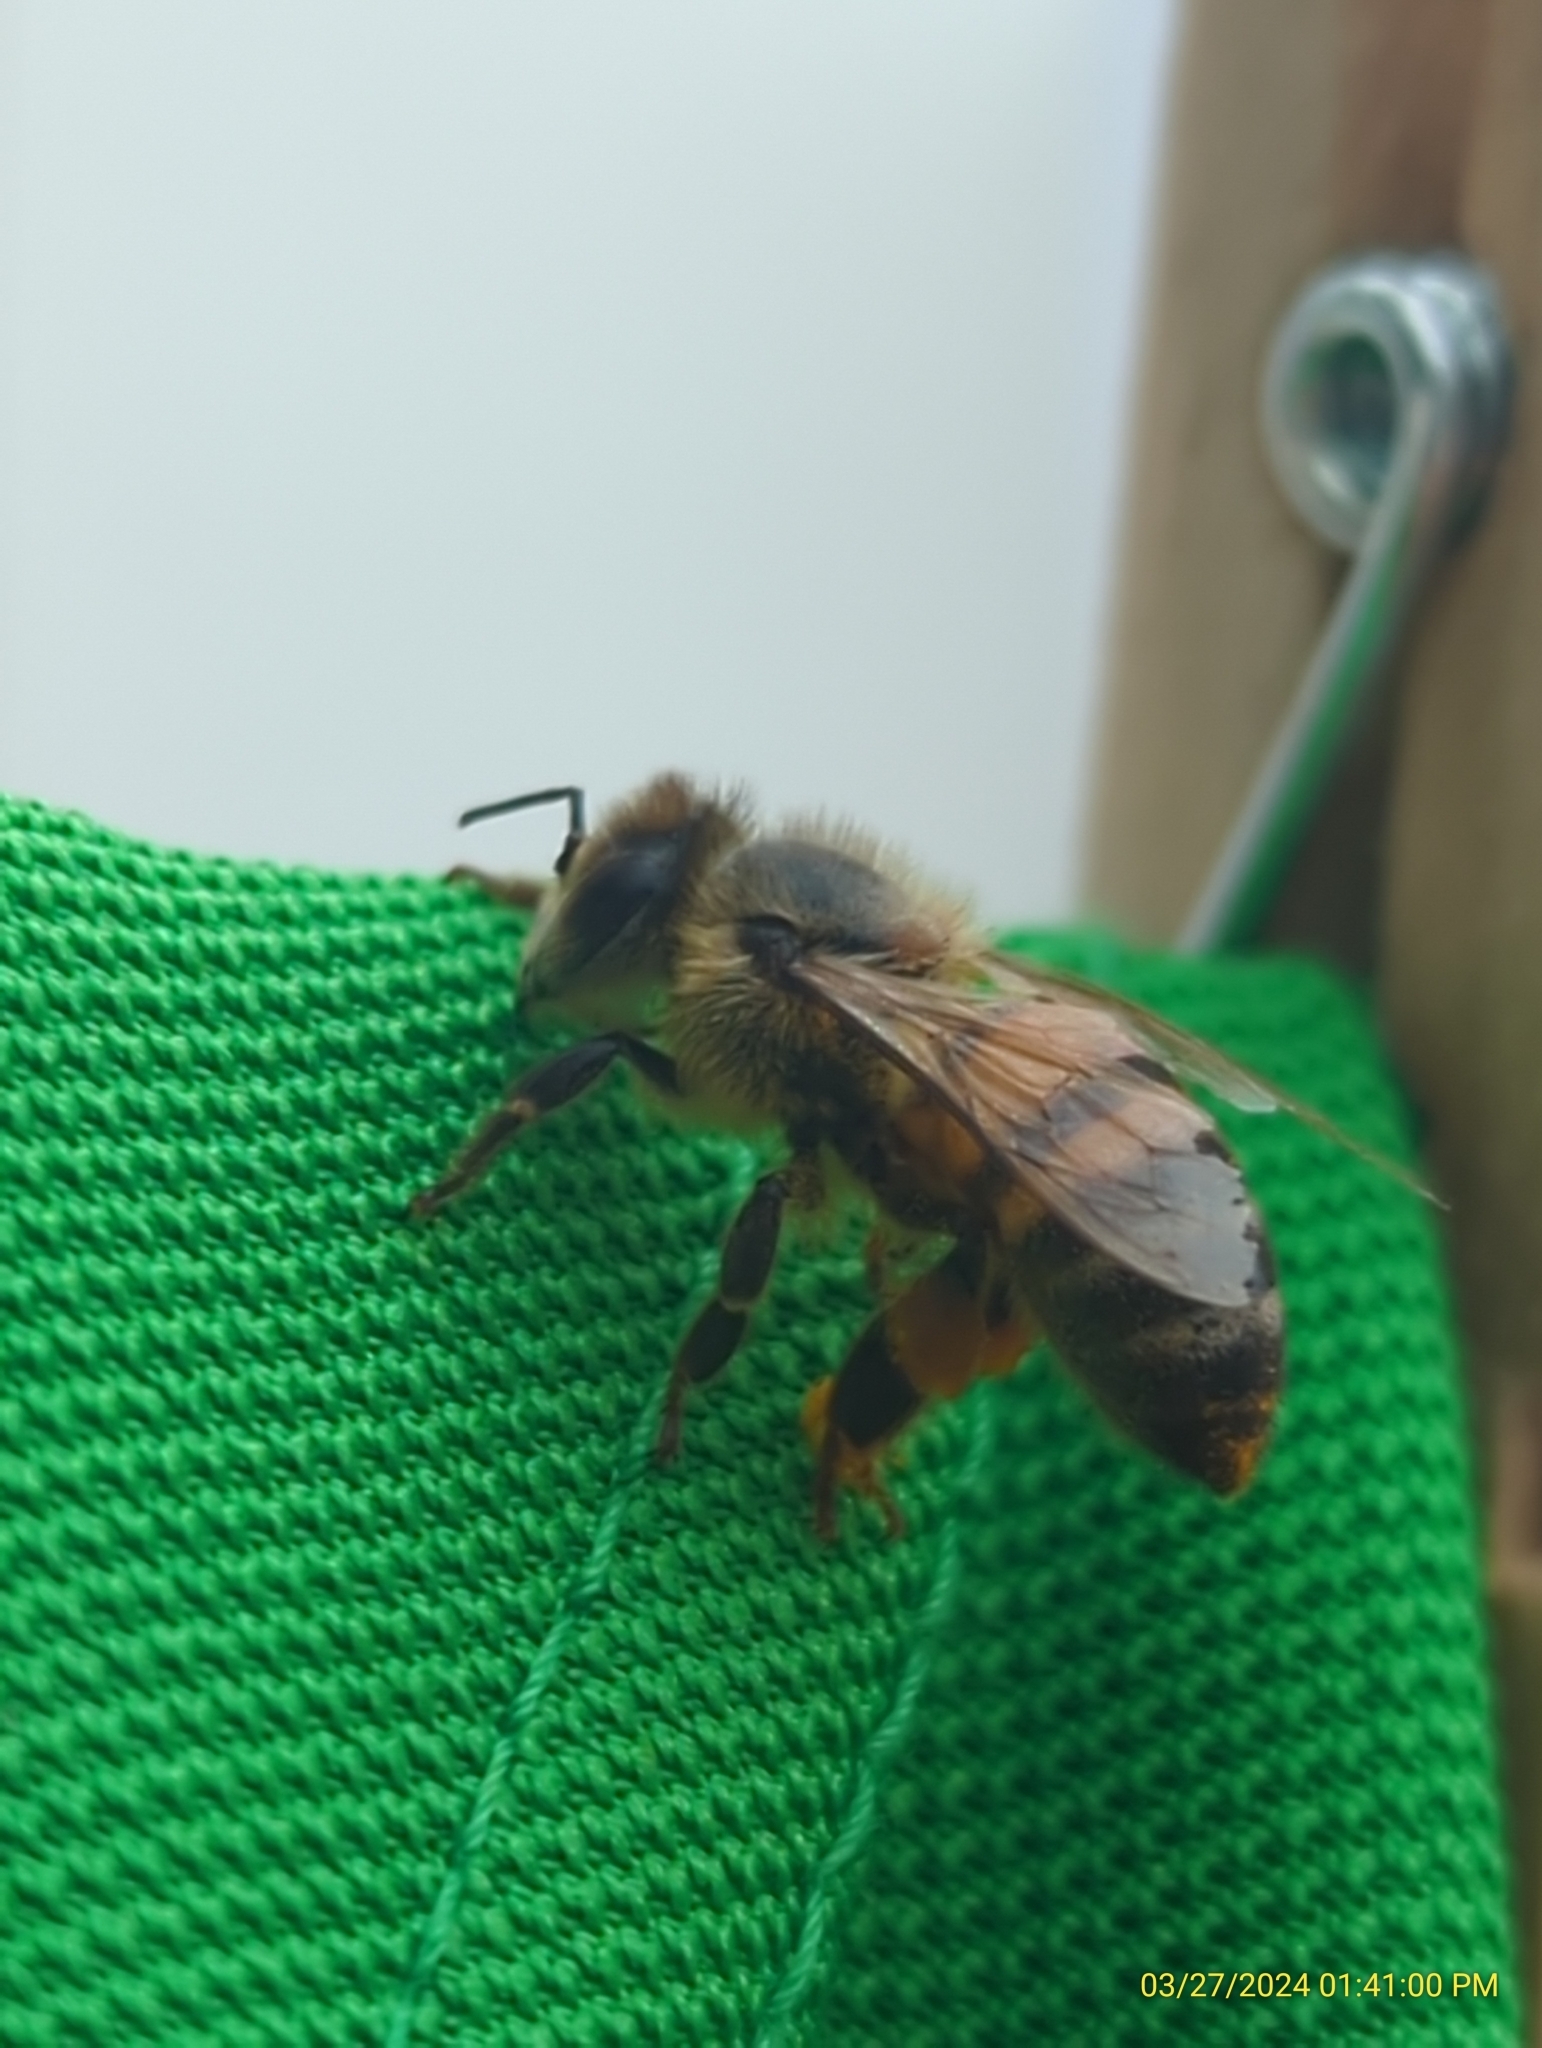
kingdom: Animalia
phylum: Arthropoda
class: Insecta
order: Hymenoptera
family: Apidae
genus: Apis
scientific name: Apis mellifera
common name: Honey bee
